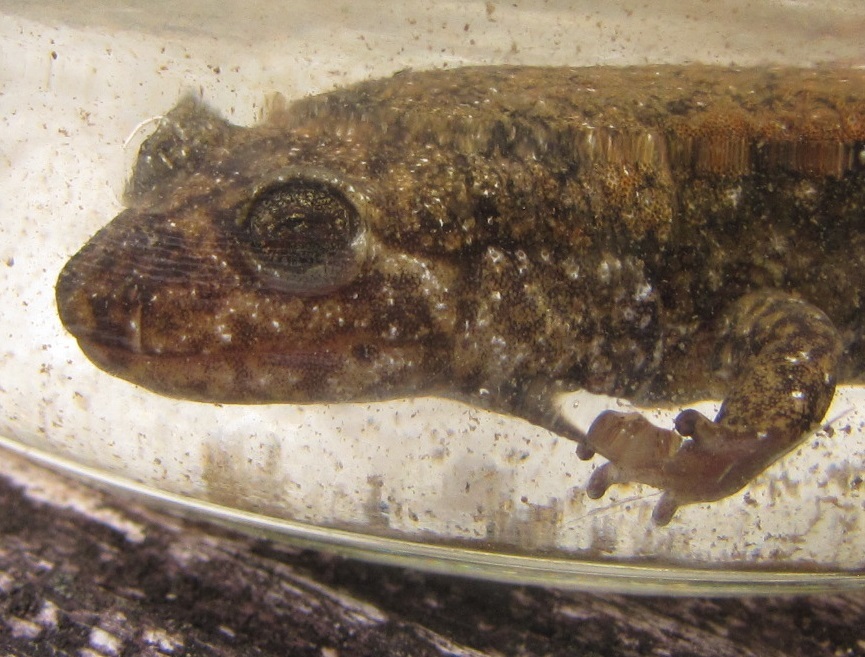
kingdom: Animalia
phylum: Chordata
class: Amphibia
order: Caudata
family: Plethodontidae
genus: Desmognathus
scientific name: Desmognathus
